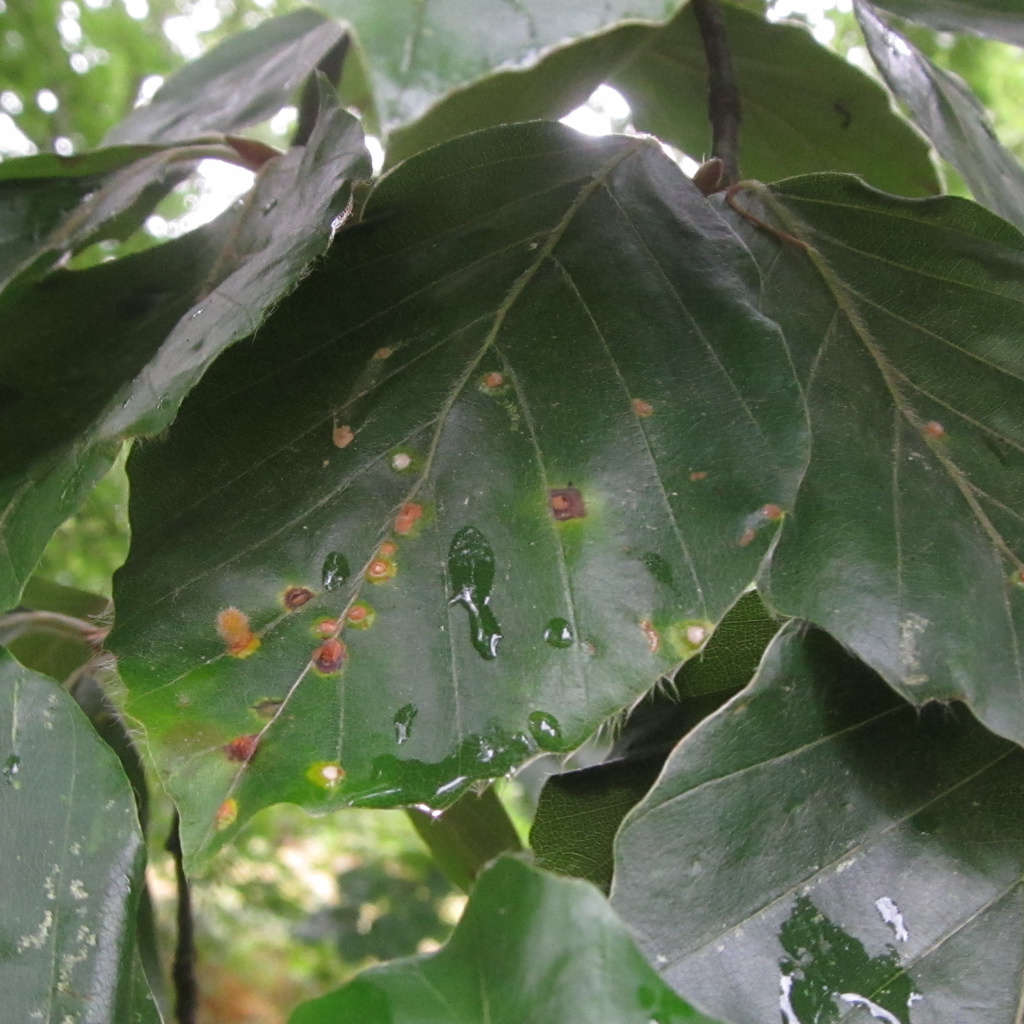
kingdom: Animalia
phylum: Arthropoda
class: Insecta
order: Diptera
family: Cecidomyiidae
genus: Hartigiola
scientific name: Hartigiola annulipes
